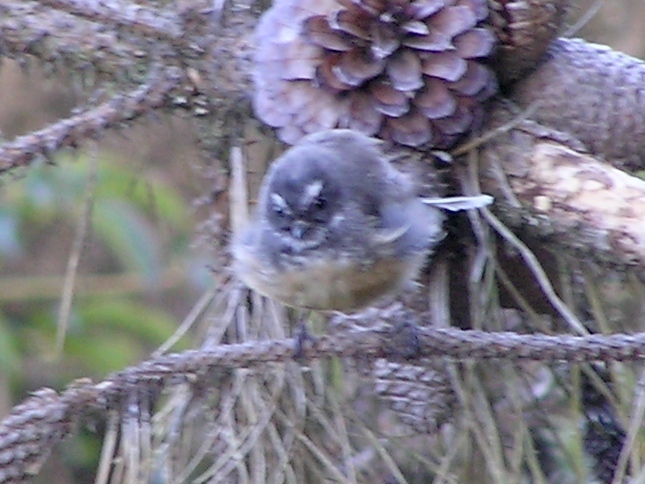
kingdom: Animalia
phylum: Chordata
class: Aves
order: Passeriformes
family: Rhipiduridae
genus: Rhipidura
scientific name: Rhipidura fuliginosa
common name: New zealand fantail
